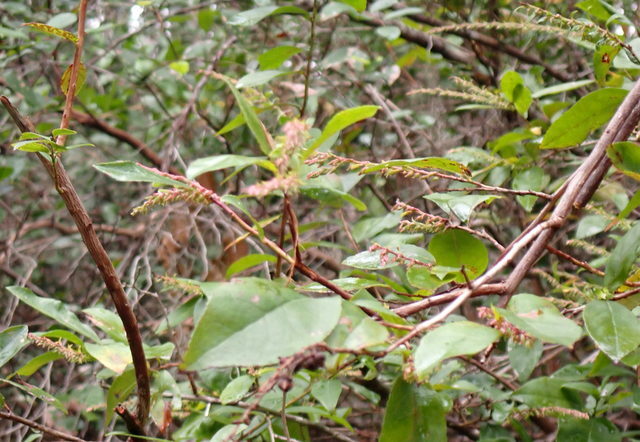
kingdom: Plantae
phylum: Tracheophyta
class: Magnoliopsida
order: Ericales
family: Ericaceae
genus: Eubotrys
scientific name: Eubotrys racemosa
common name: Fetterbush
